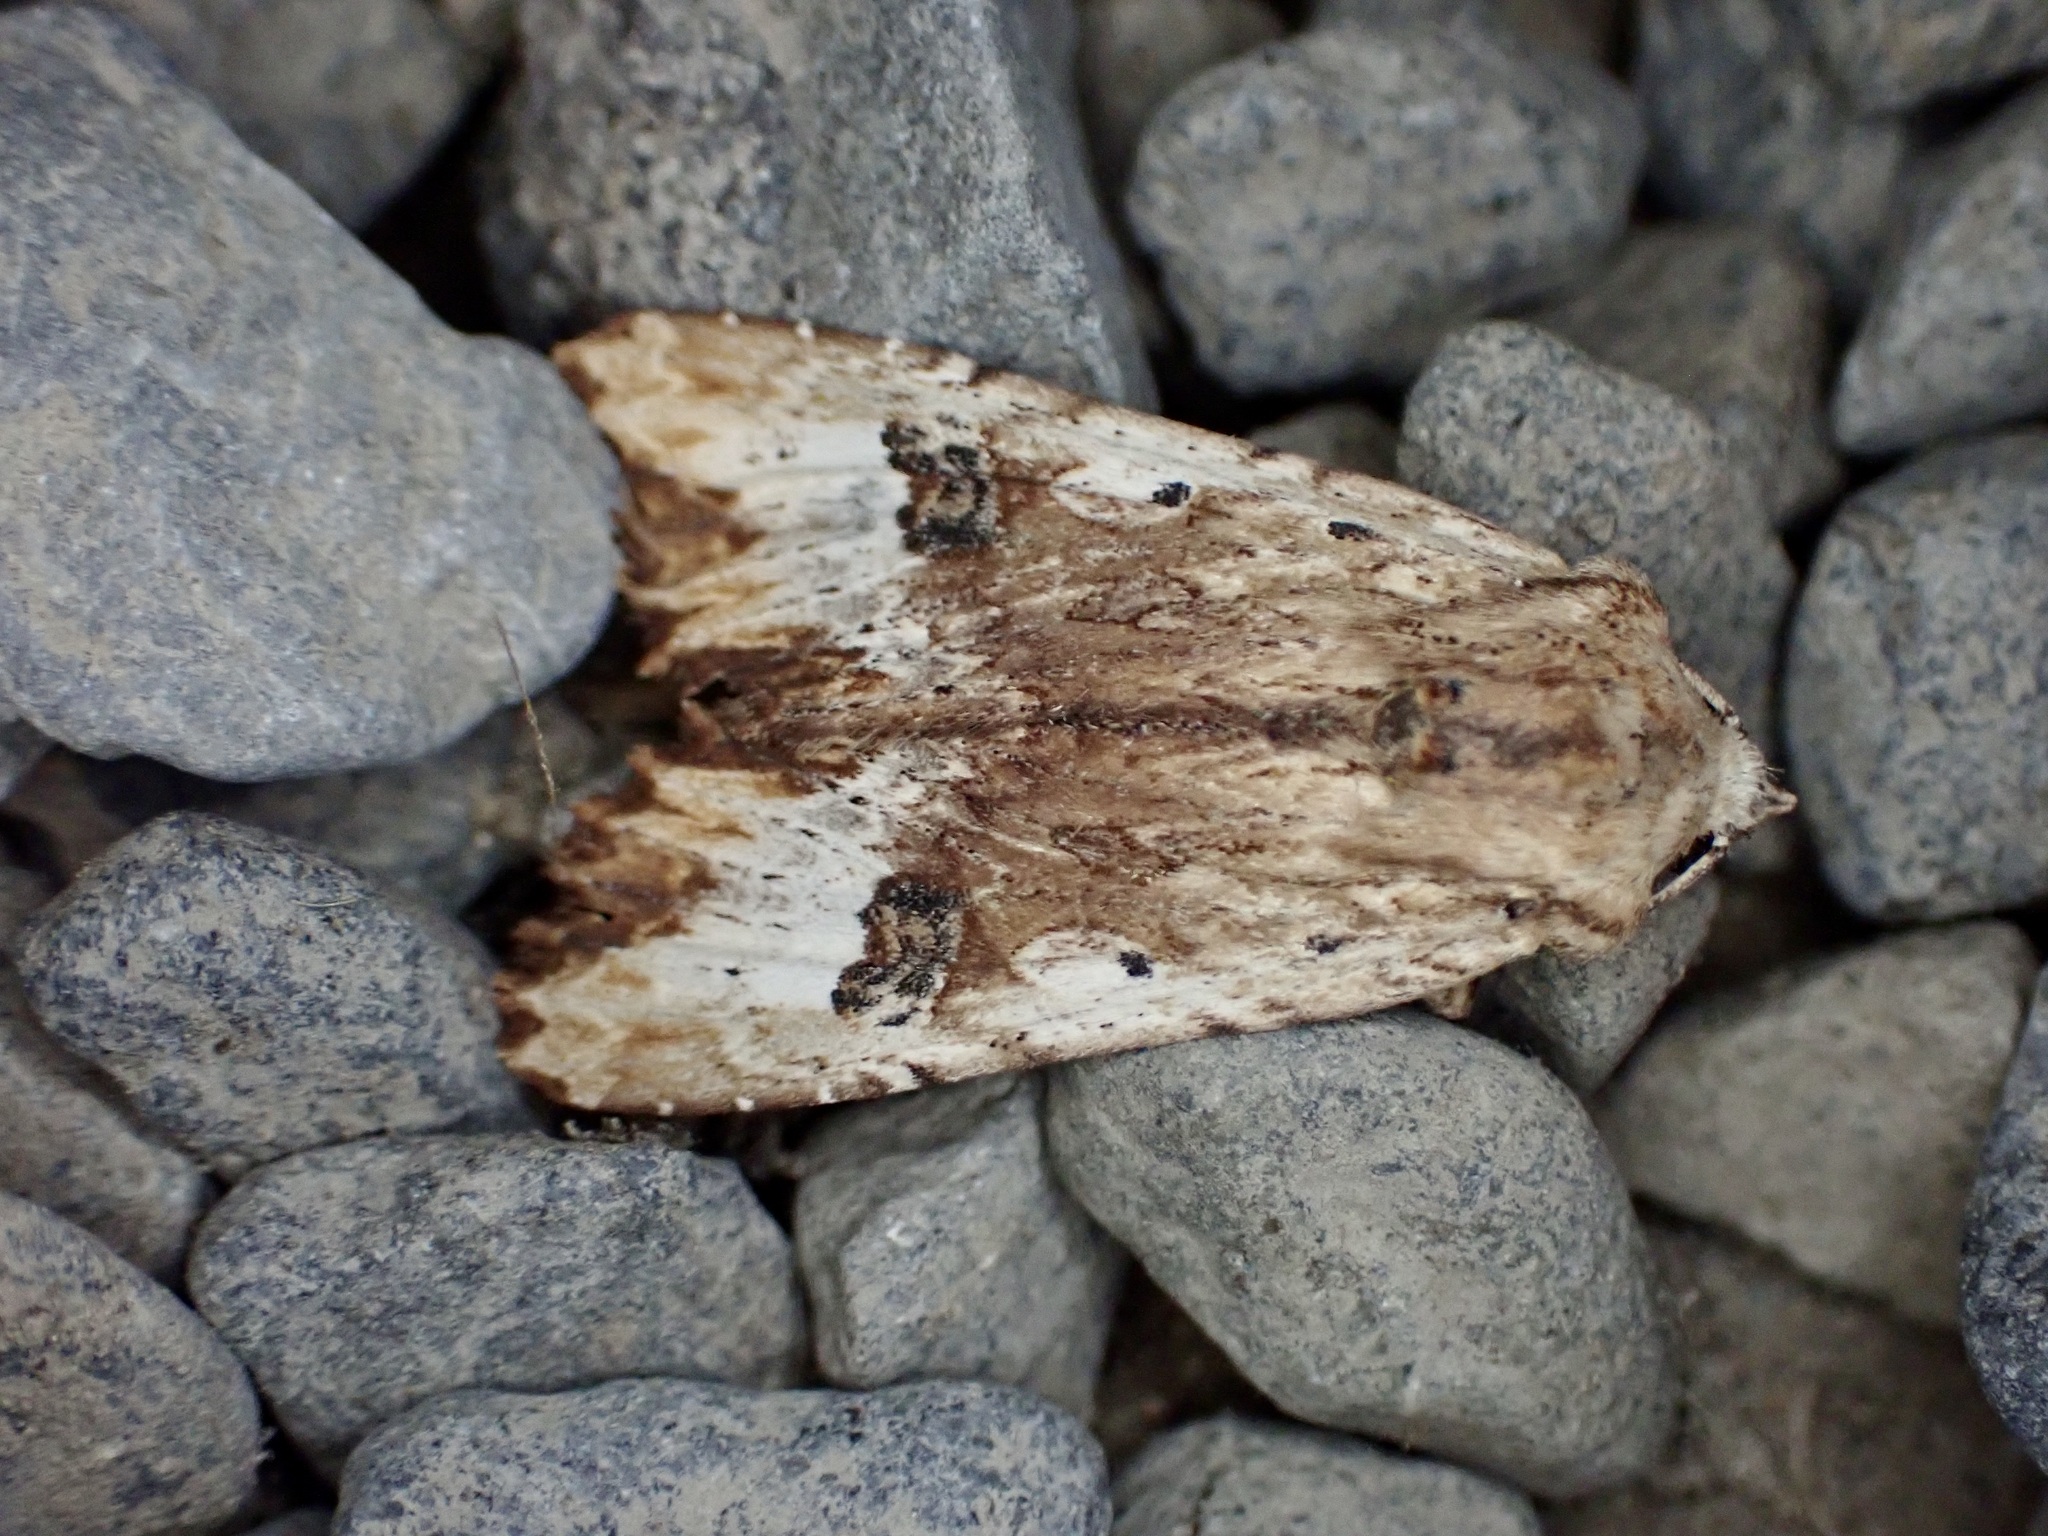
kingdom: Animalia
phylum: Arthropoda
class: Insecta
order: Lepidoptera
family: Noctuidae
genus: Ichneutica
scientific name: Ichneutica
